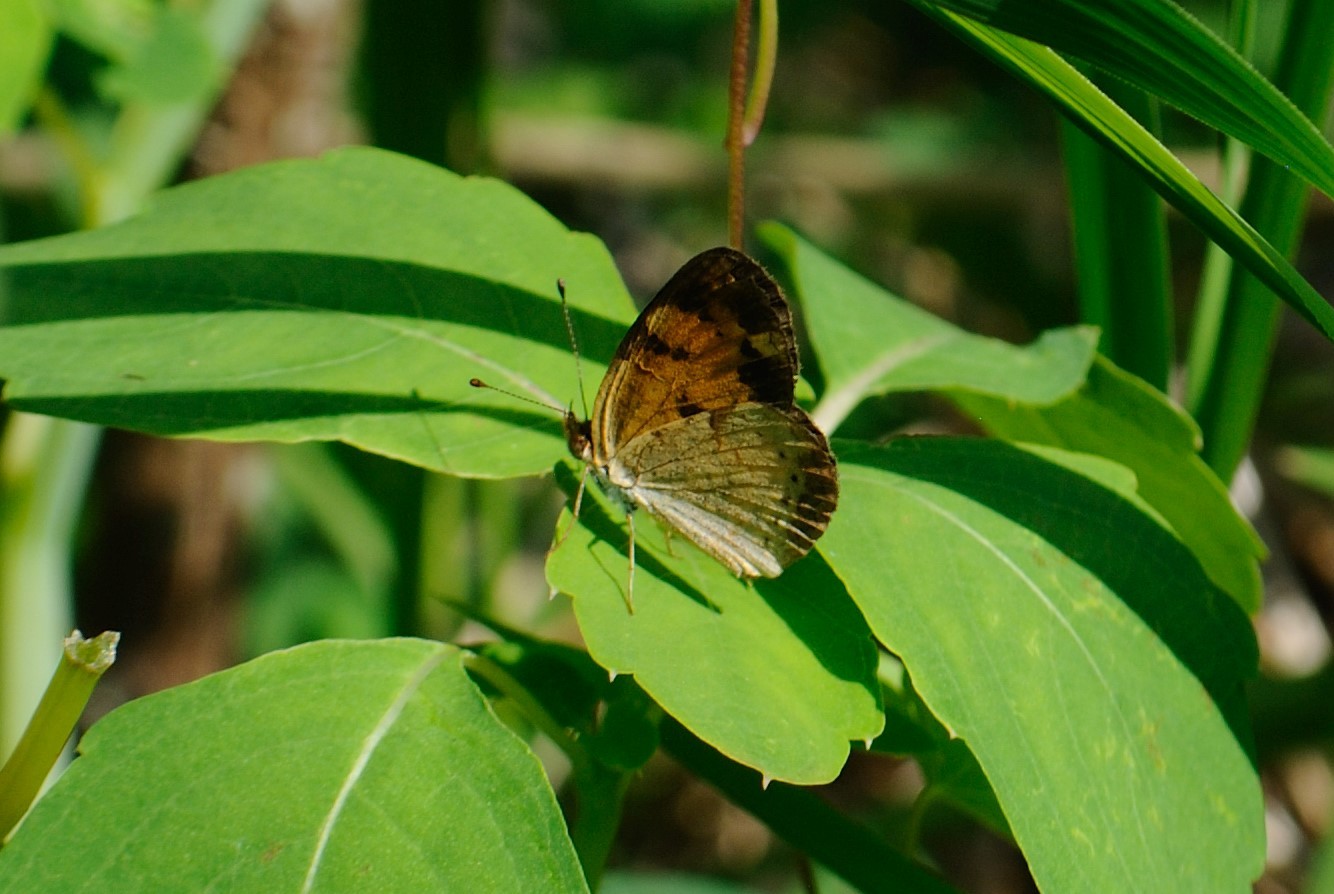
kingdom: Animalia
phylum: Arthropoda
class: Insecta
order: Lepidoptera
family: Nymphalidae
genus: Phyciodes
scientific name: Phyciodes tharos
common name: Pearl crescent
